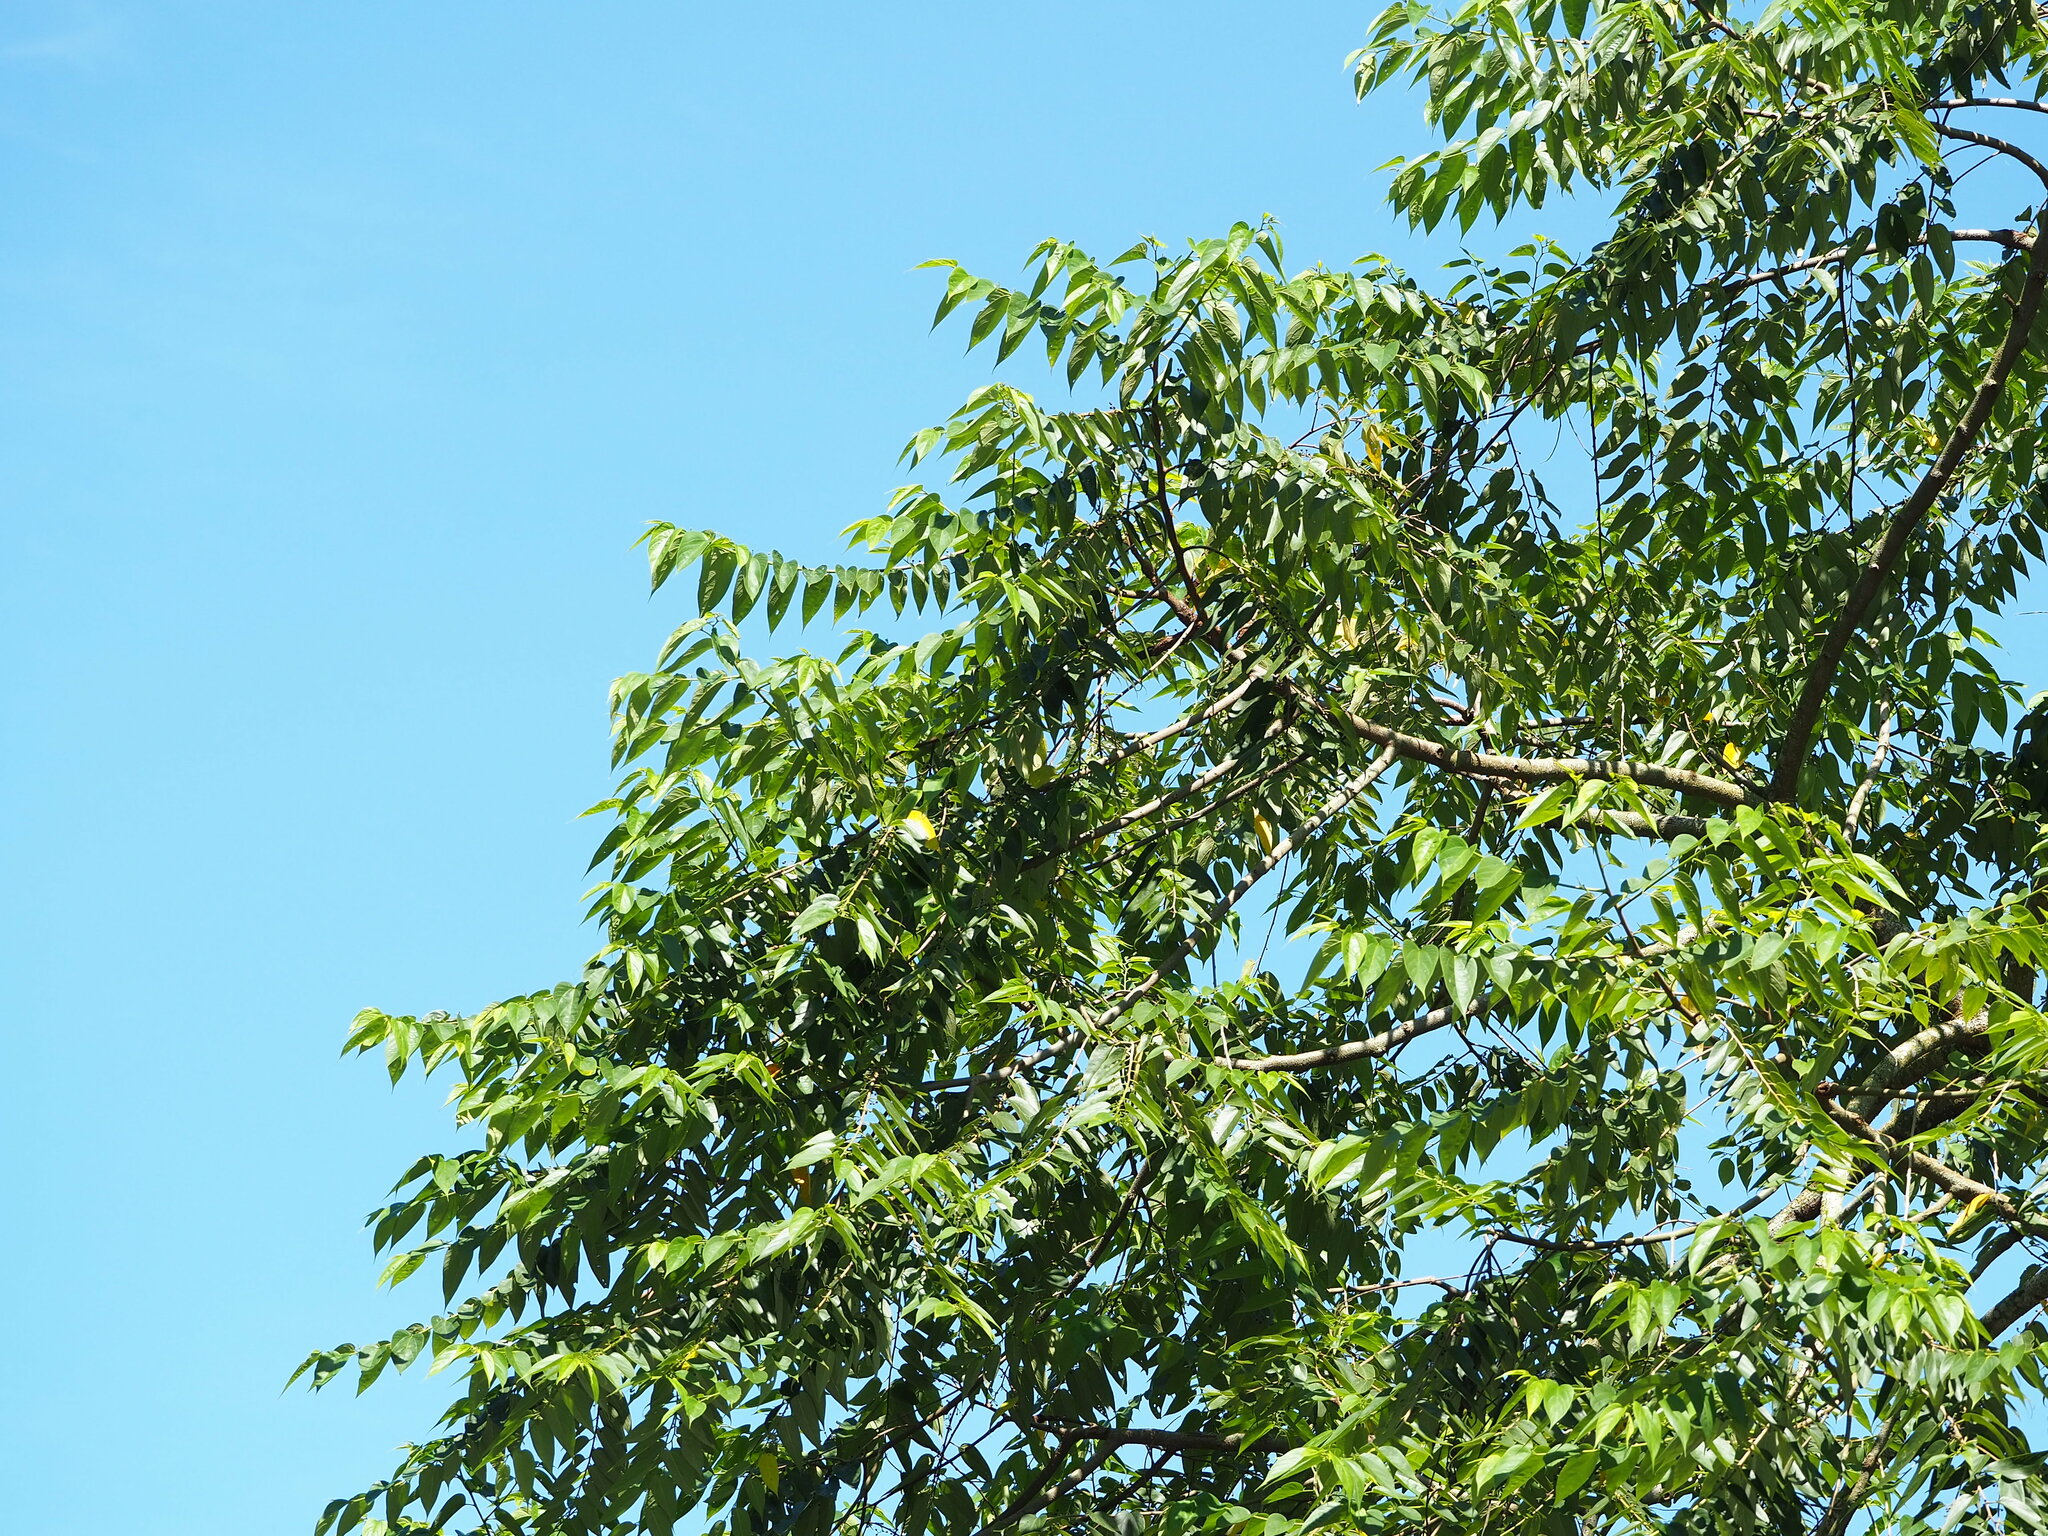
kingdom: Plantae
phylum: Tracheophyta
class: Magnoliopsida
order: Rosales
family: Cannabaceae
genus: Trema
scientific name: Trema orientale
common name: Indian charcoal tree
